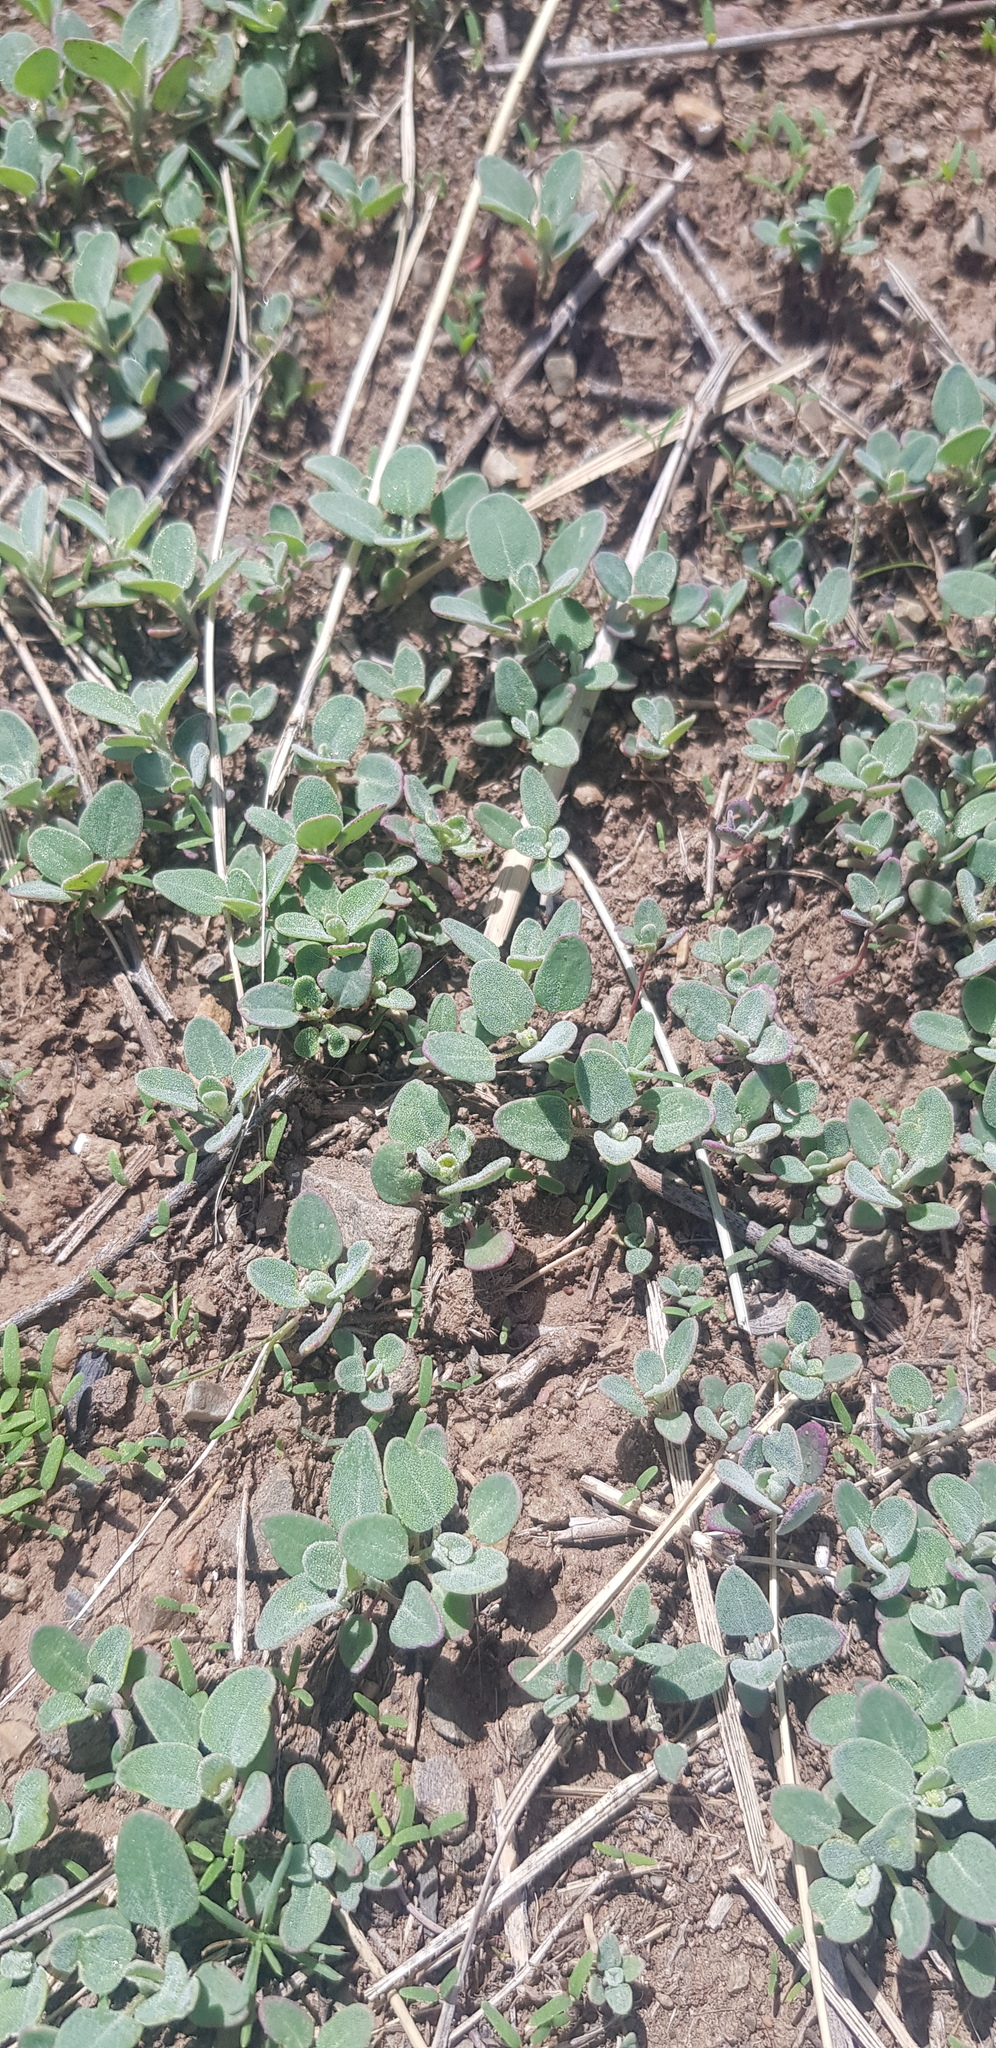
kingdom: Plantae
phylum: Tracheophyta
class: Magnoliopsida
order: Caryophyllales
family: Amaranthaceae
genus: Chenopodium
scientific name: Chenopodium acuminatum
